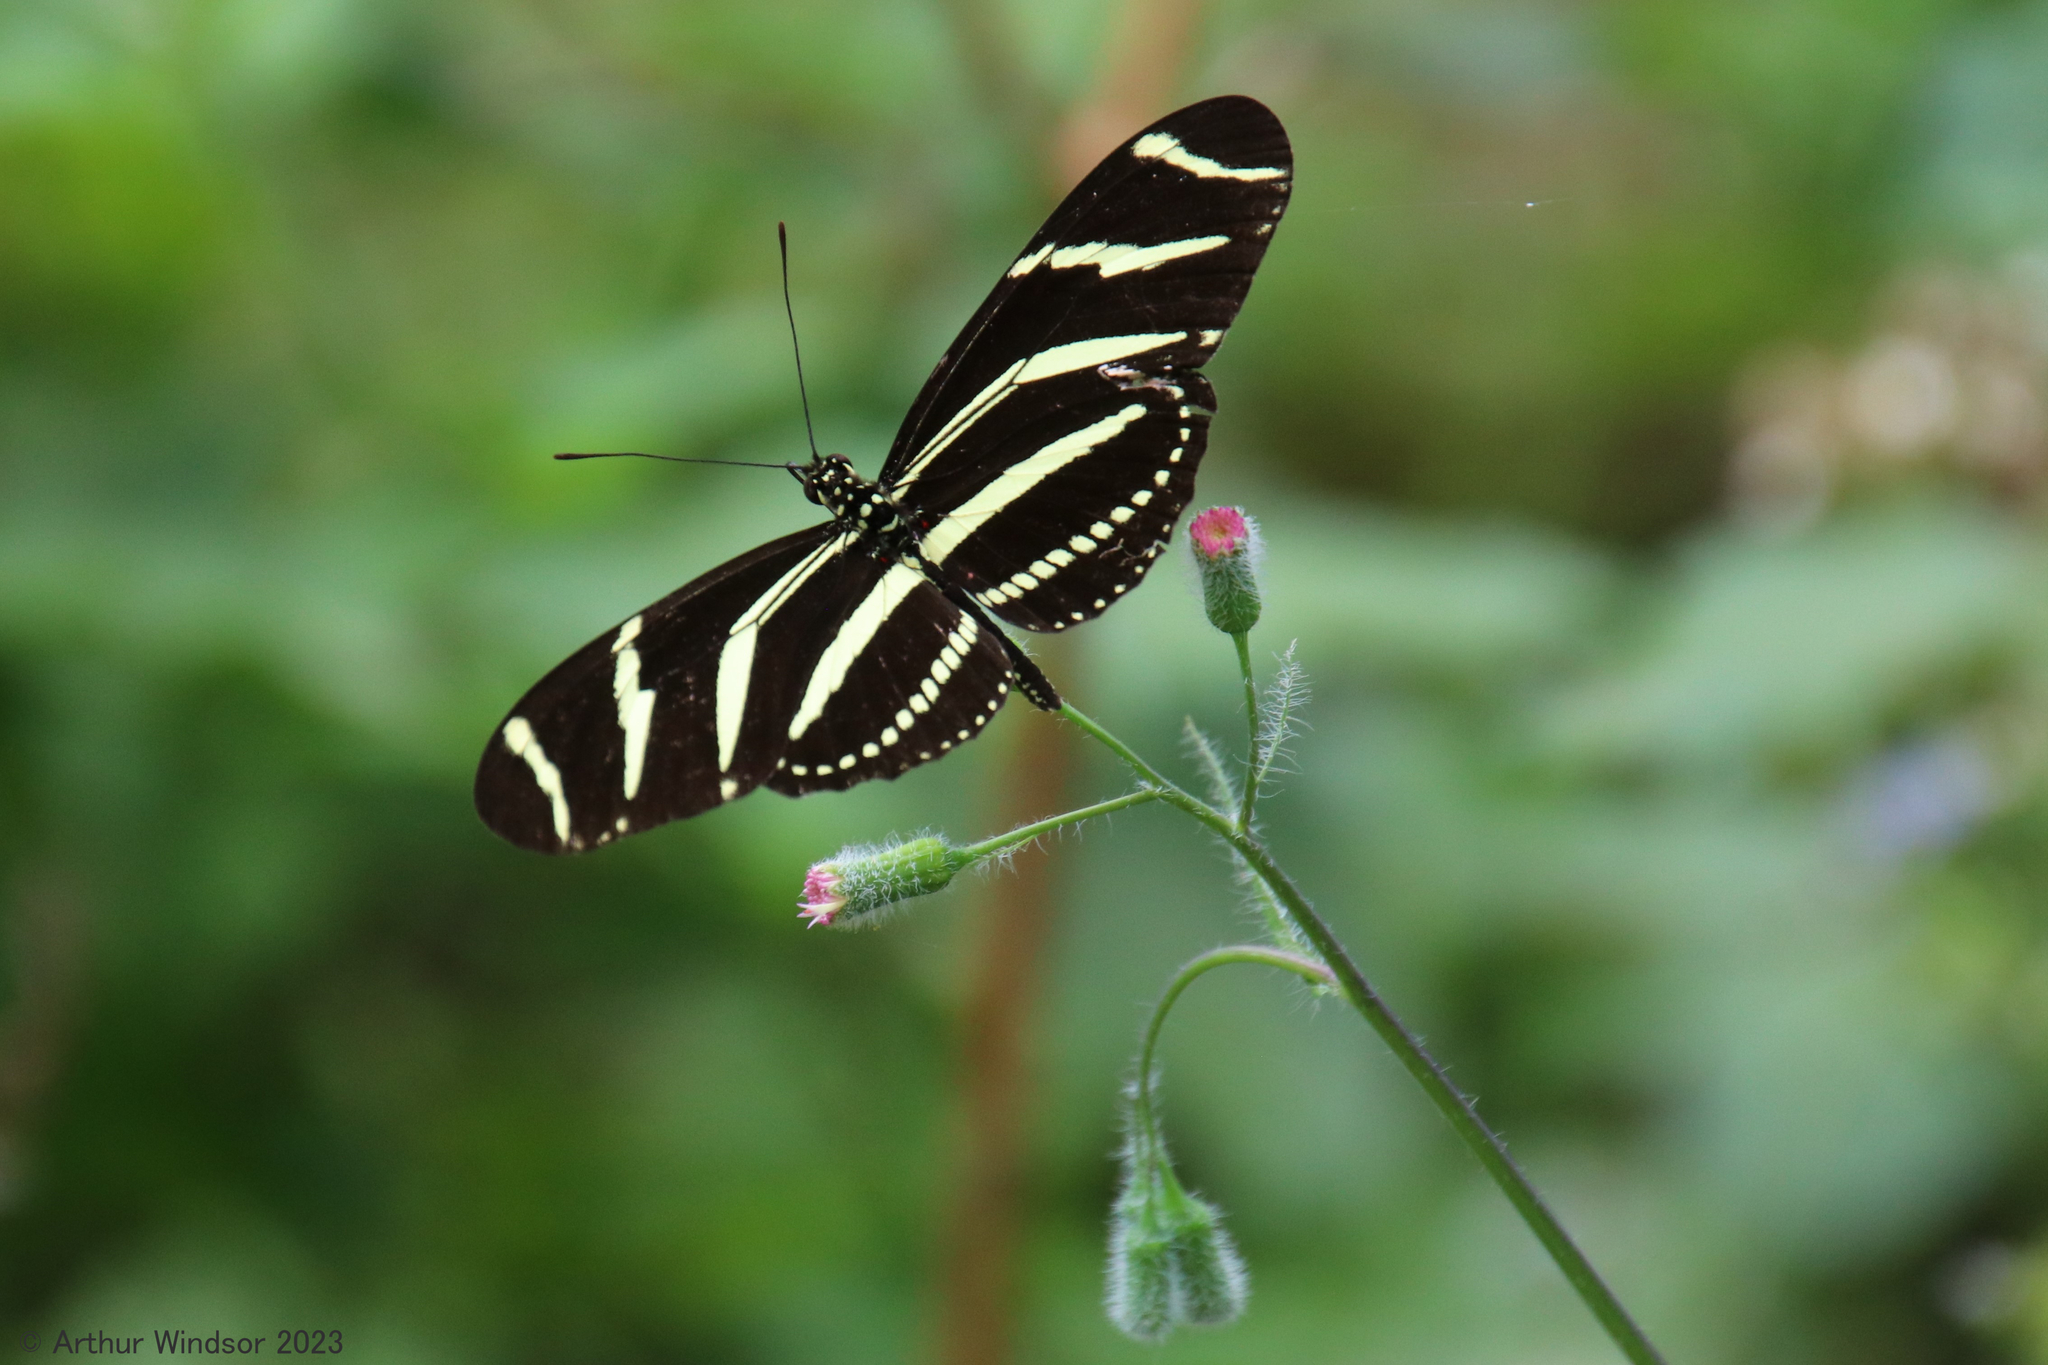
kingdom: Animalia
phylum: Arthropoda
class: Insecta
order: Lepidoptera
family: Nymphalidae
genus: Heliconius
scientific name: Heliconius charithonia
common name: Zebra long wing
